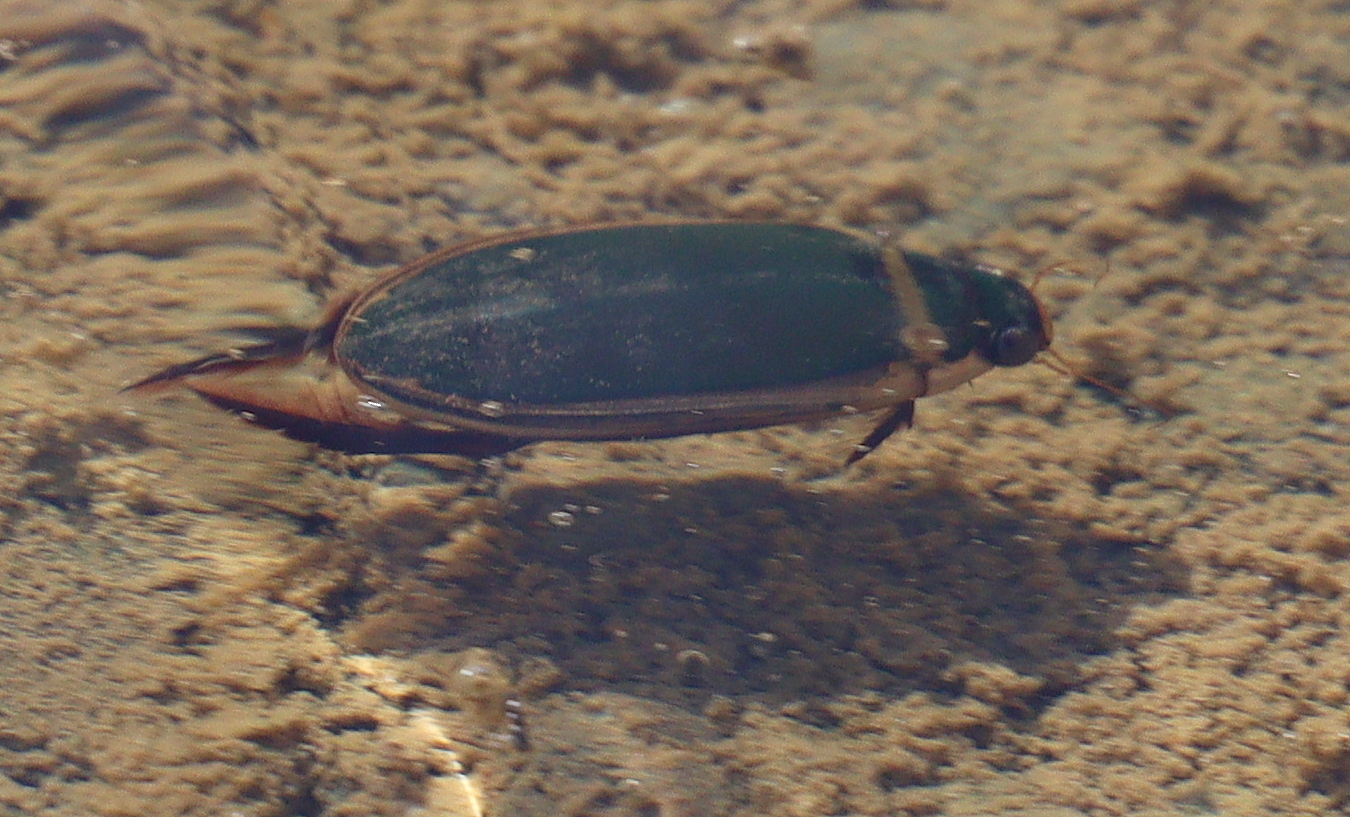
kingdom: Animalia
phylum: Arthropoda
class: Insecta
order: Coleoptera
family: Dytiscidae
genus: Cybister
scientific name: Cybister
